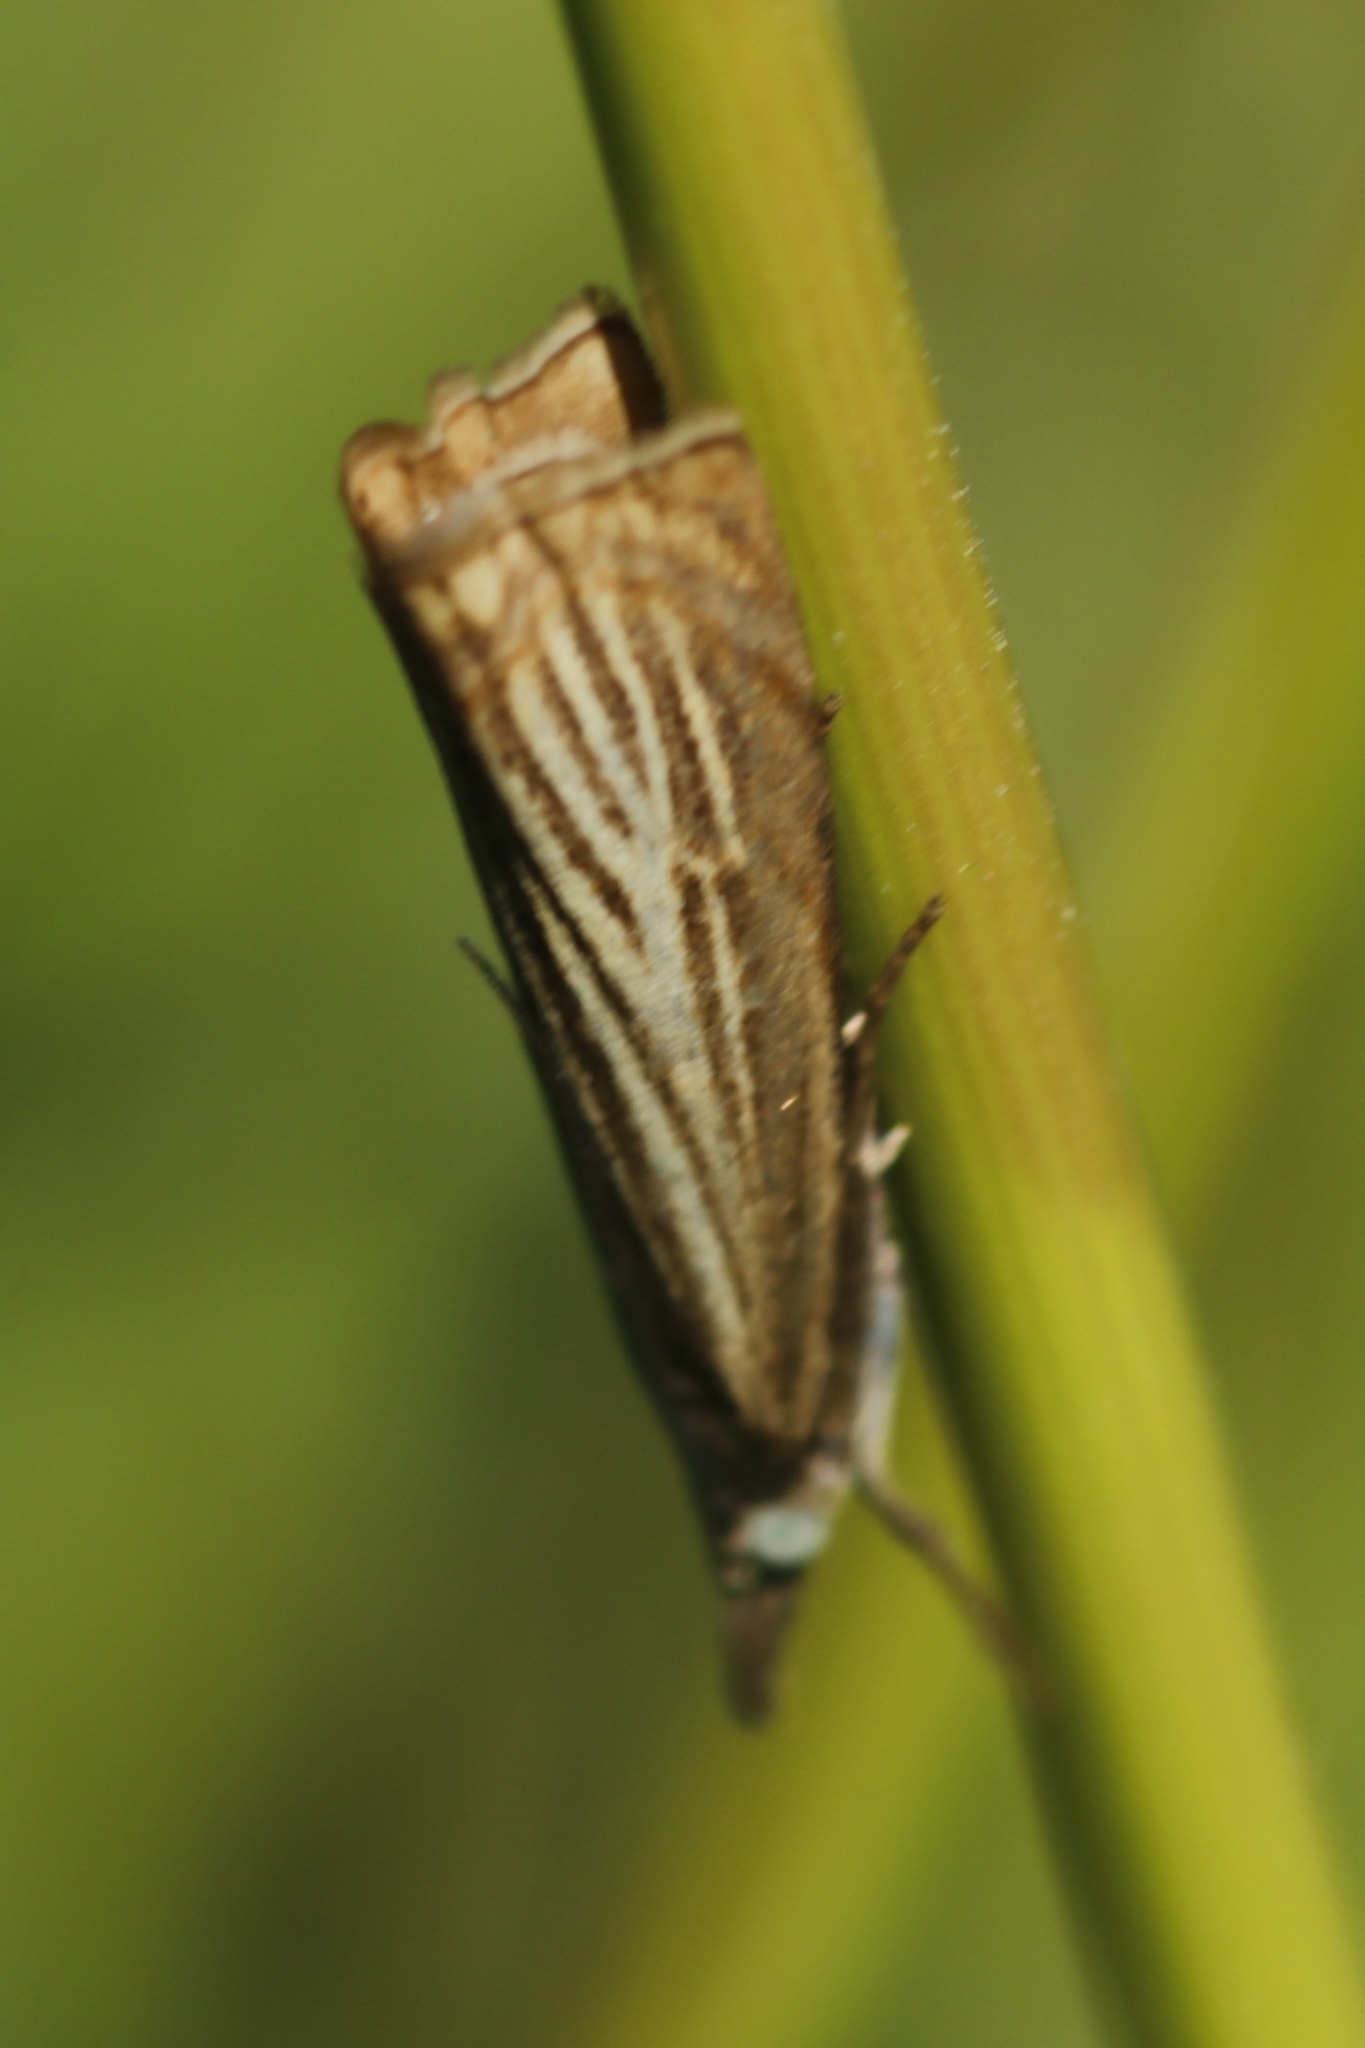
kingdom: Animalia
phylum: Arthropoda
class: Insecta
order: Lepidoptera
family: Crambidae
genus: Chrysoteuchia
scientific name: Chrysoteuchia culmella
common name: Garden grass-veneer
